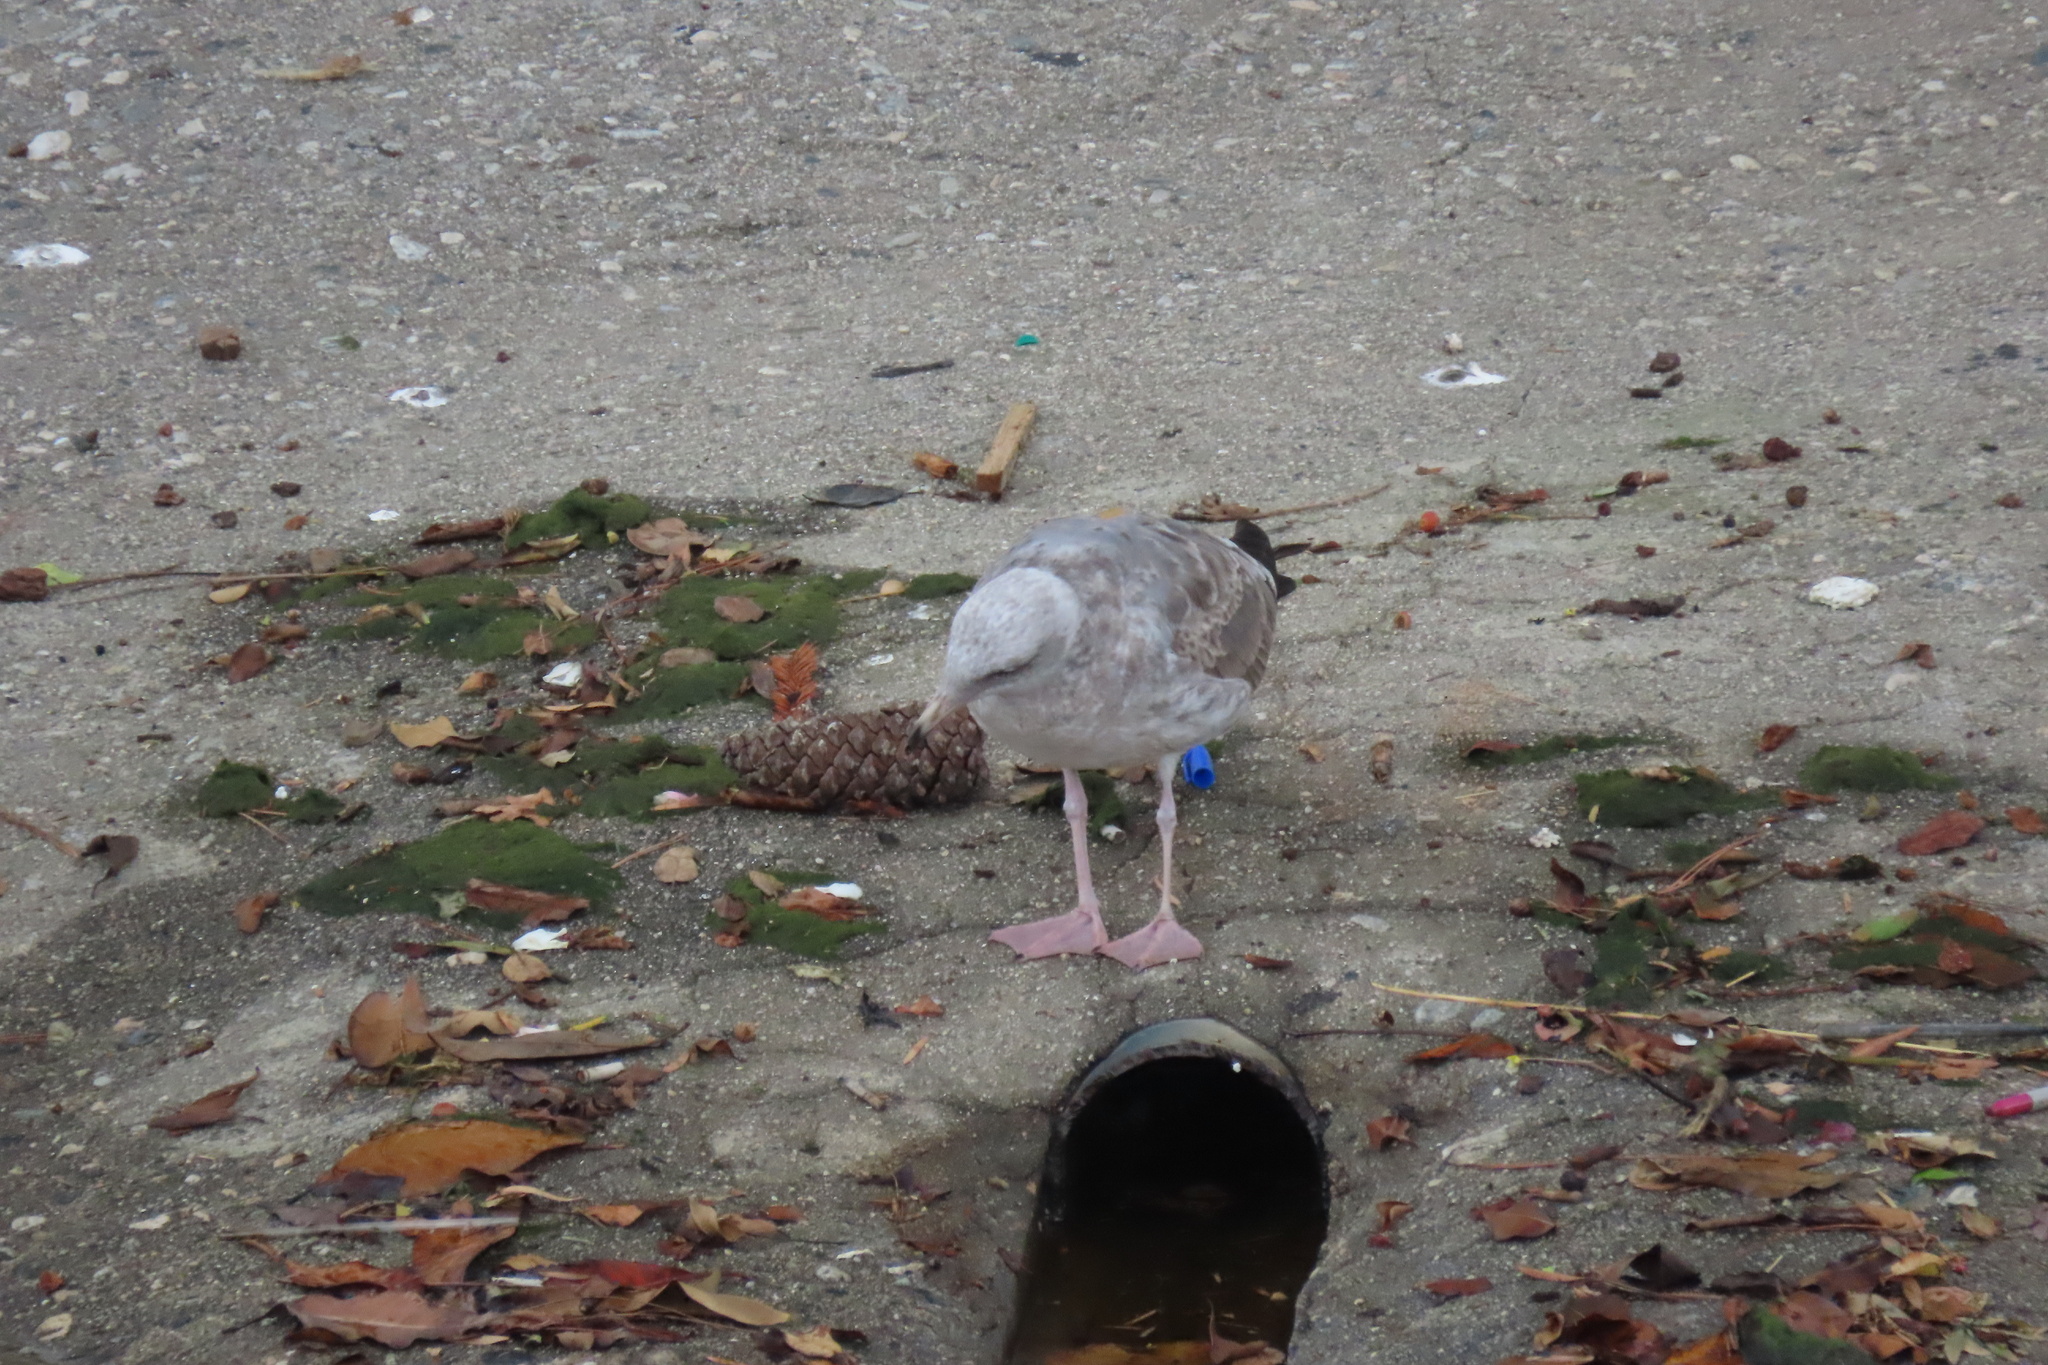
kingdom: Animalia
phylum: Chordata
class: Aves
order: Charadriiformes
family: Laridae
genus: Larus
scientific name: Larus occidentalis
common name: Western gull
